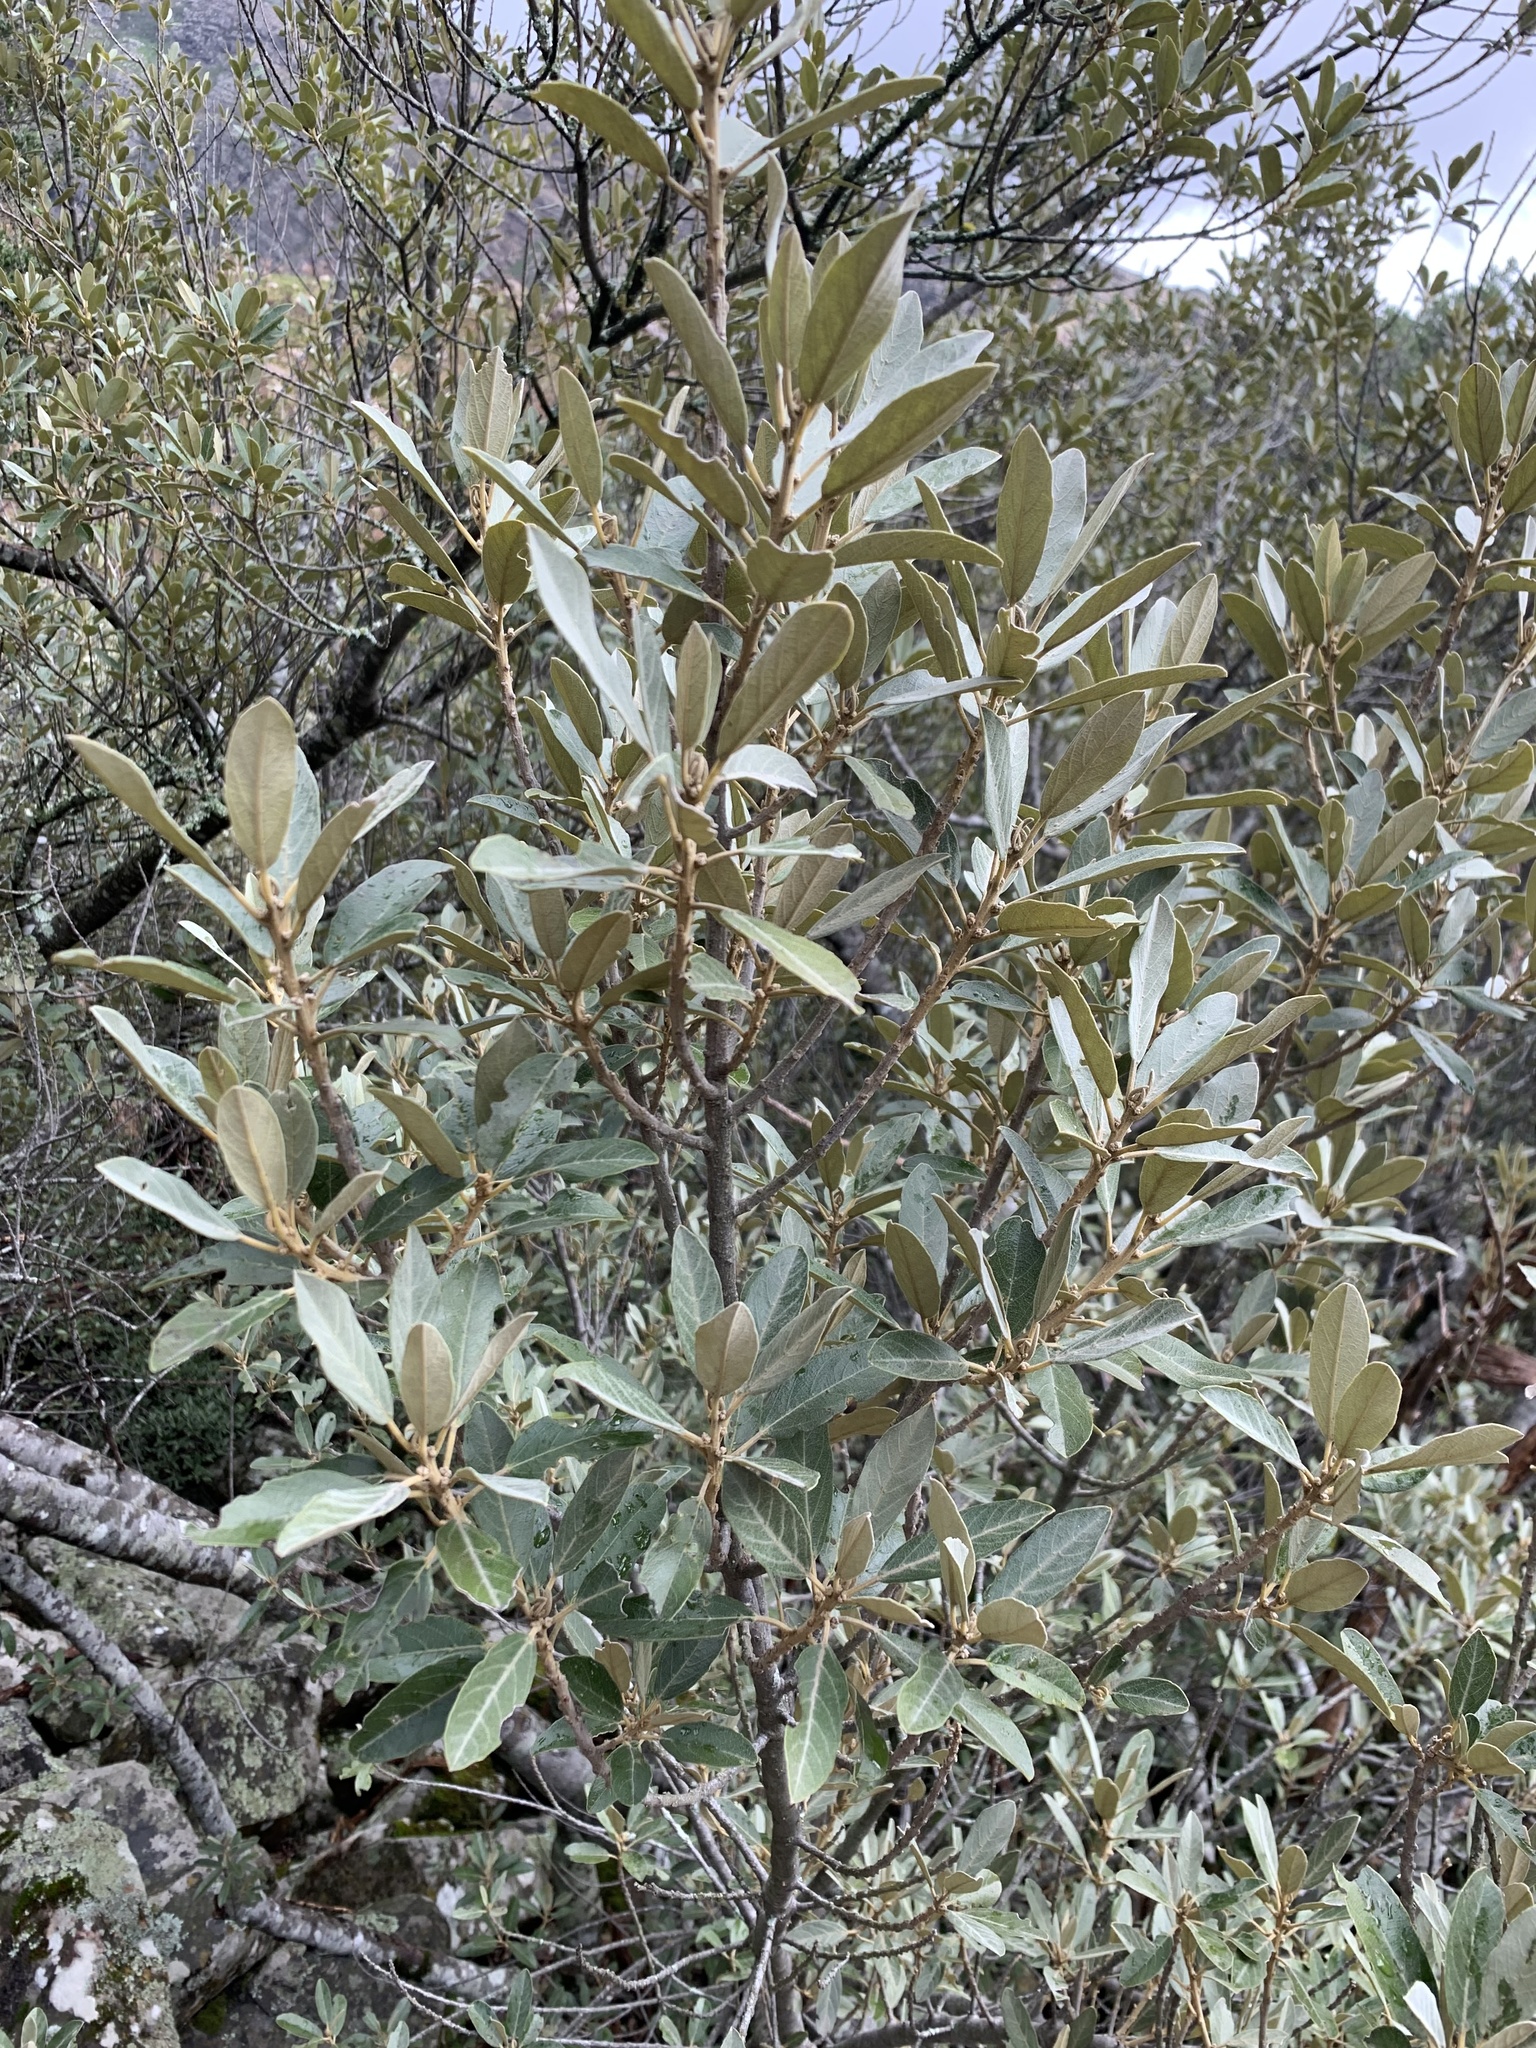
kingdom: Plantae
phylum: Tracheophyta
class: Magnoliopsida
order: Malpighiales
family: Achariaceae
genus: Kiggelaria
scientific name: Kiggelaria africana
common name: Wild peach
